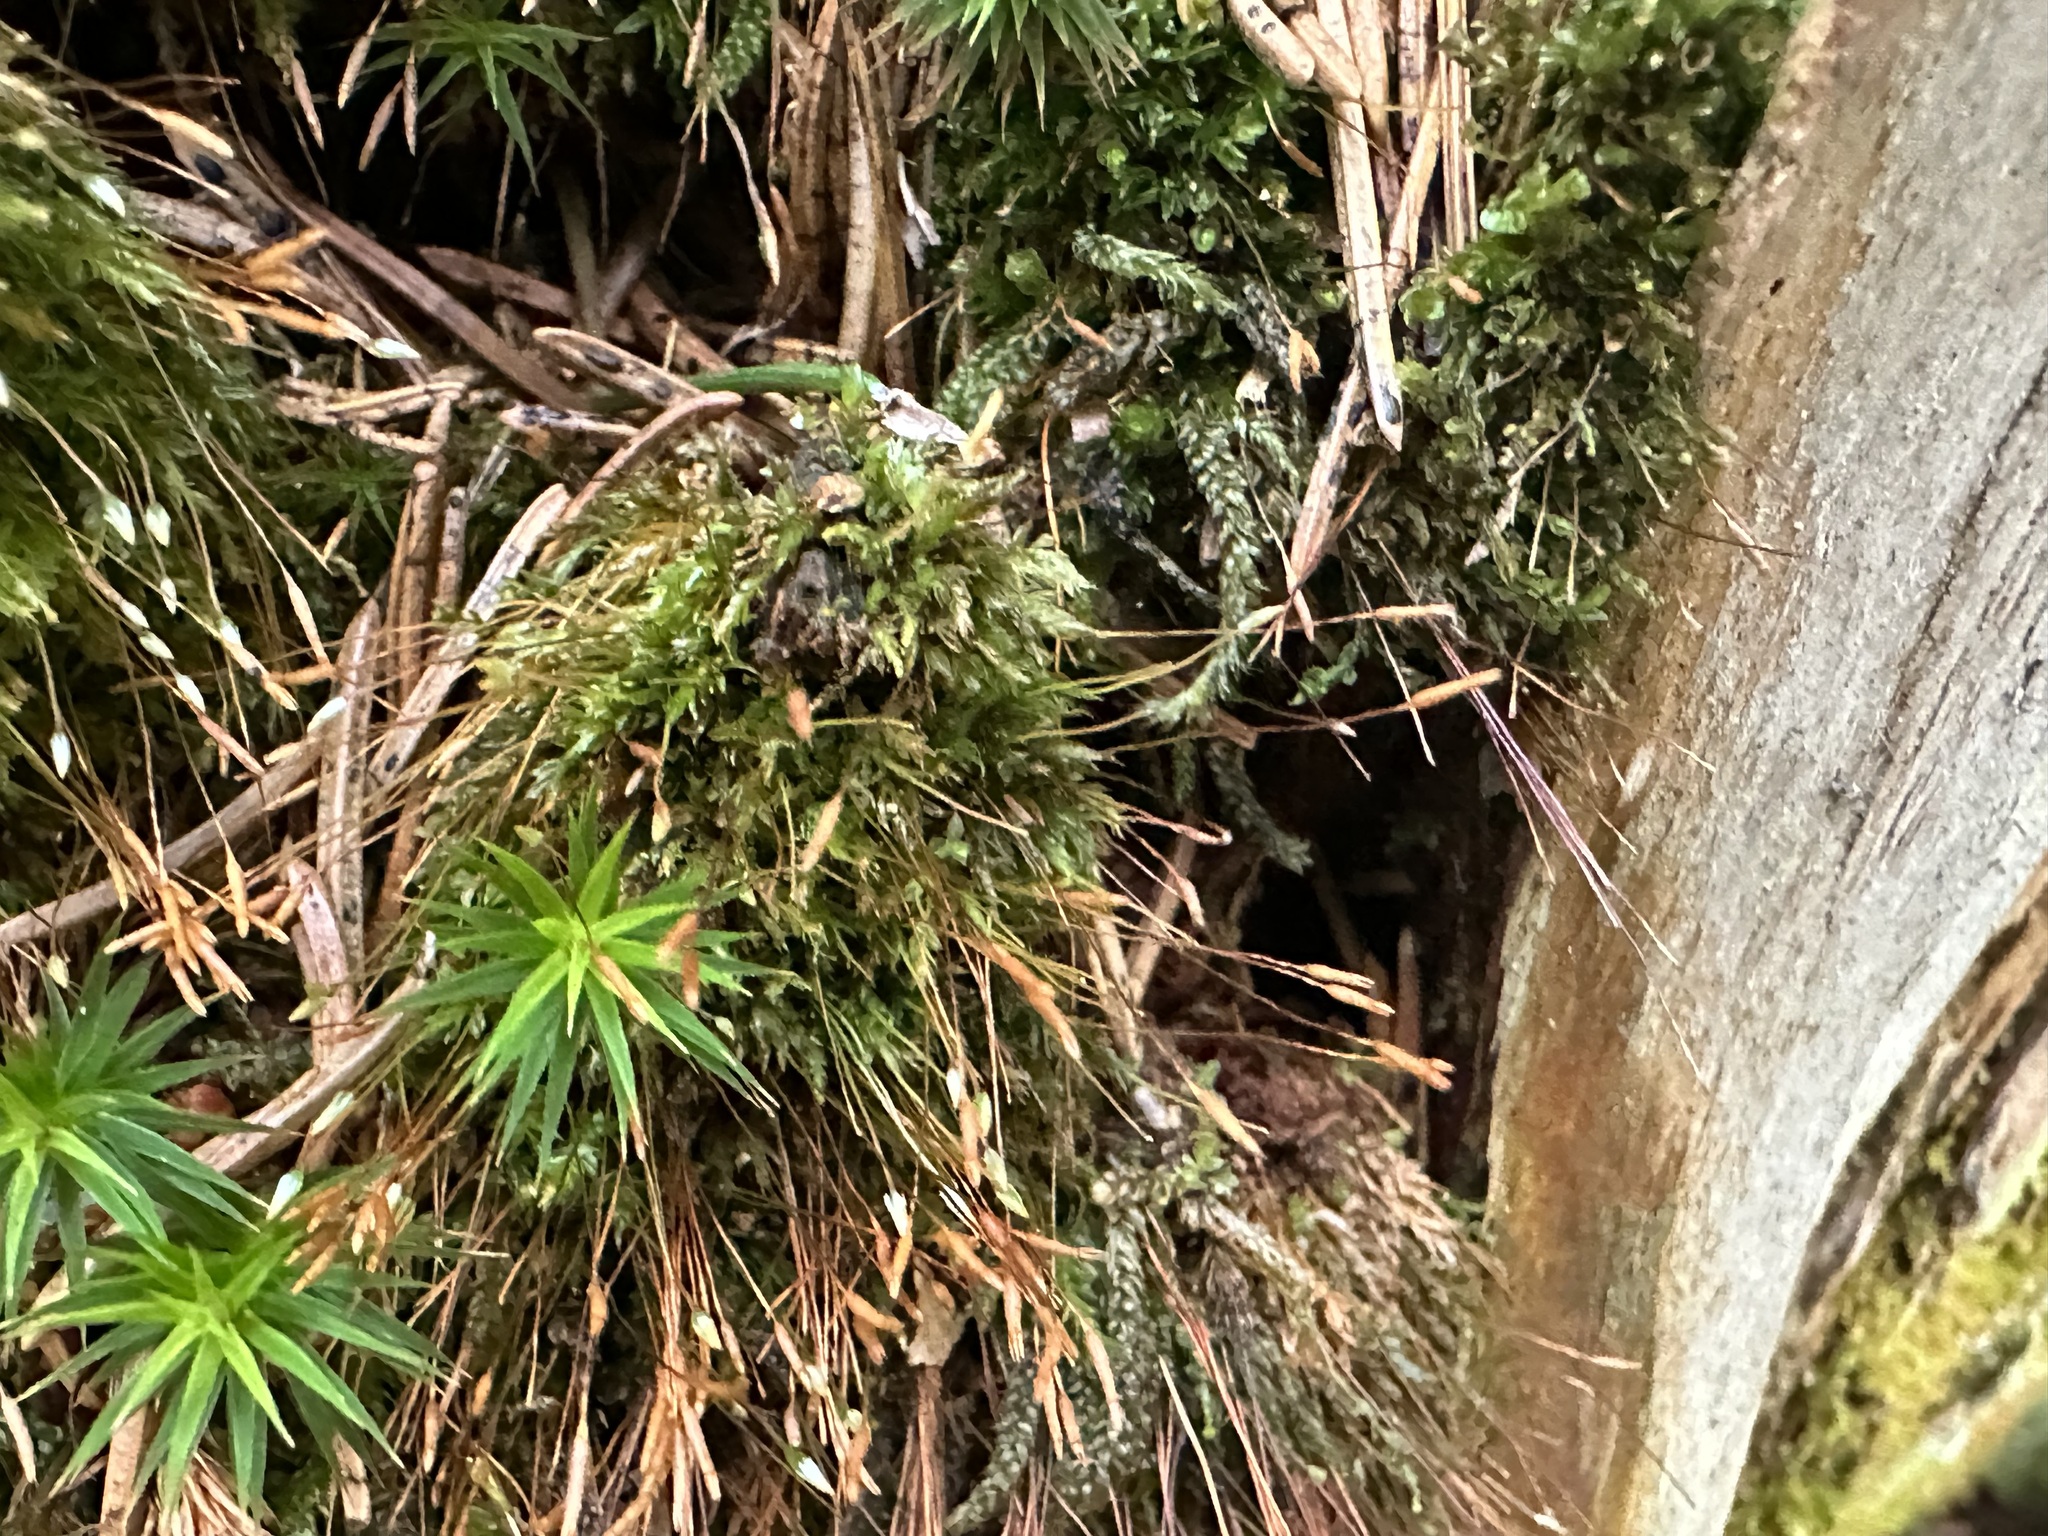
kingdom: Plantae
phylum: Bryophyta
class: Polytrichopsida
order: Tetraphidales
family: Tetraphidaceae
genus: Tetraphis
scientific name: Tetraphis pellucida
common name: Common four-toothed moss
